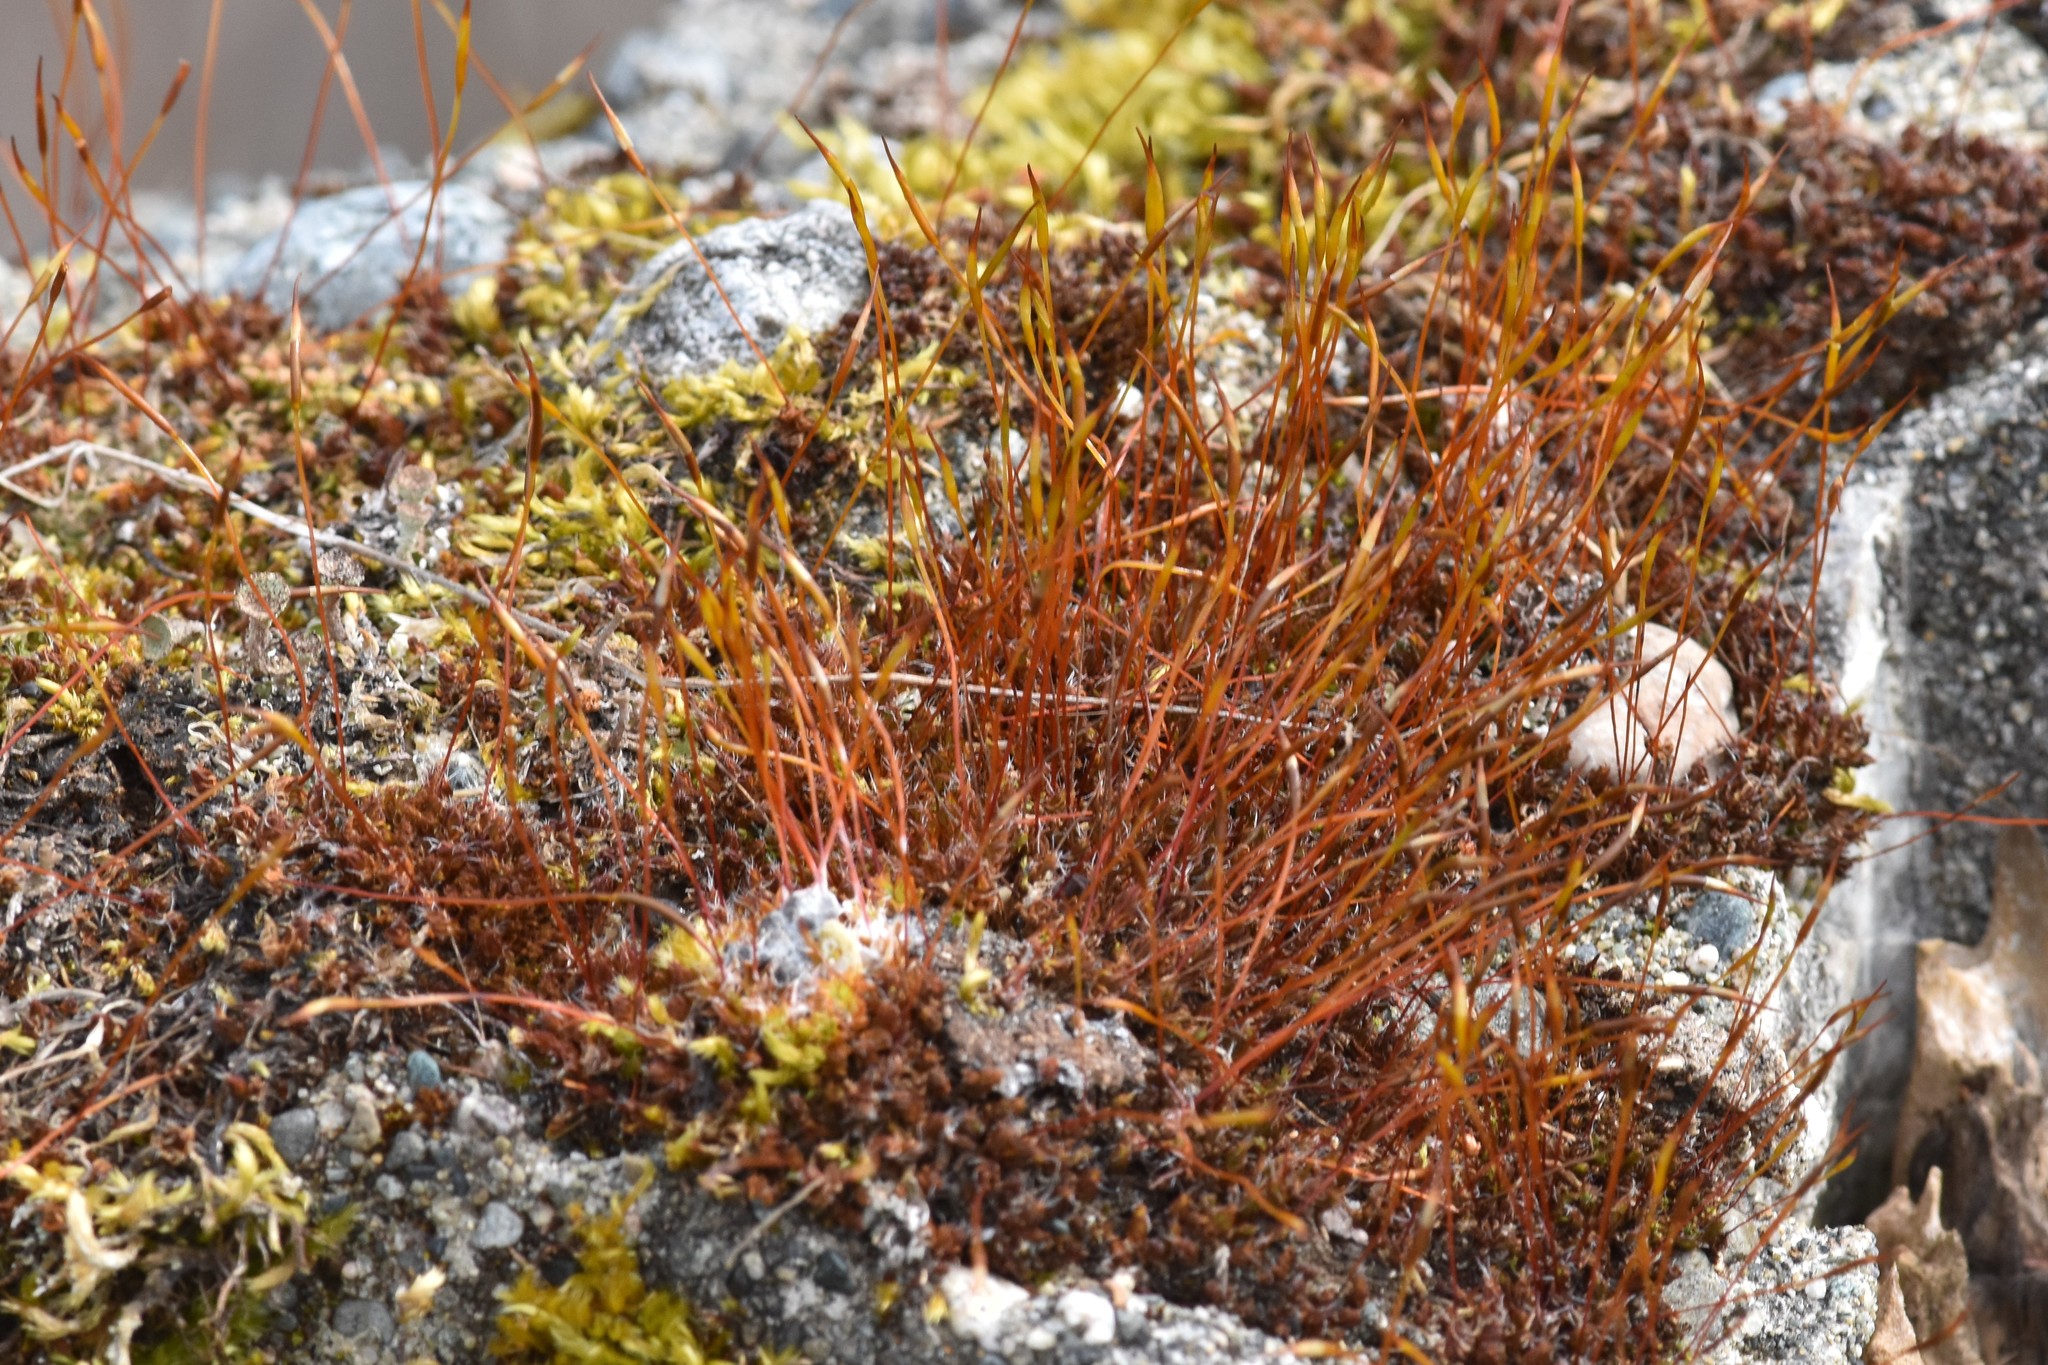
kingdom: Plantae
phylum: Bryophyta
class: Bryopsida
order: Dicranales
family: Ditrichaceae
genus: Ceratodon
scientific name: Ceratodon purpureus
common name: Redshank
